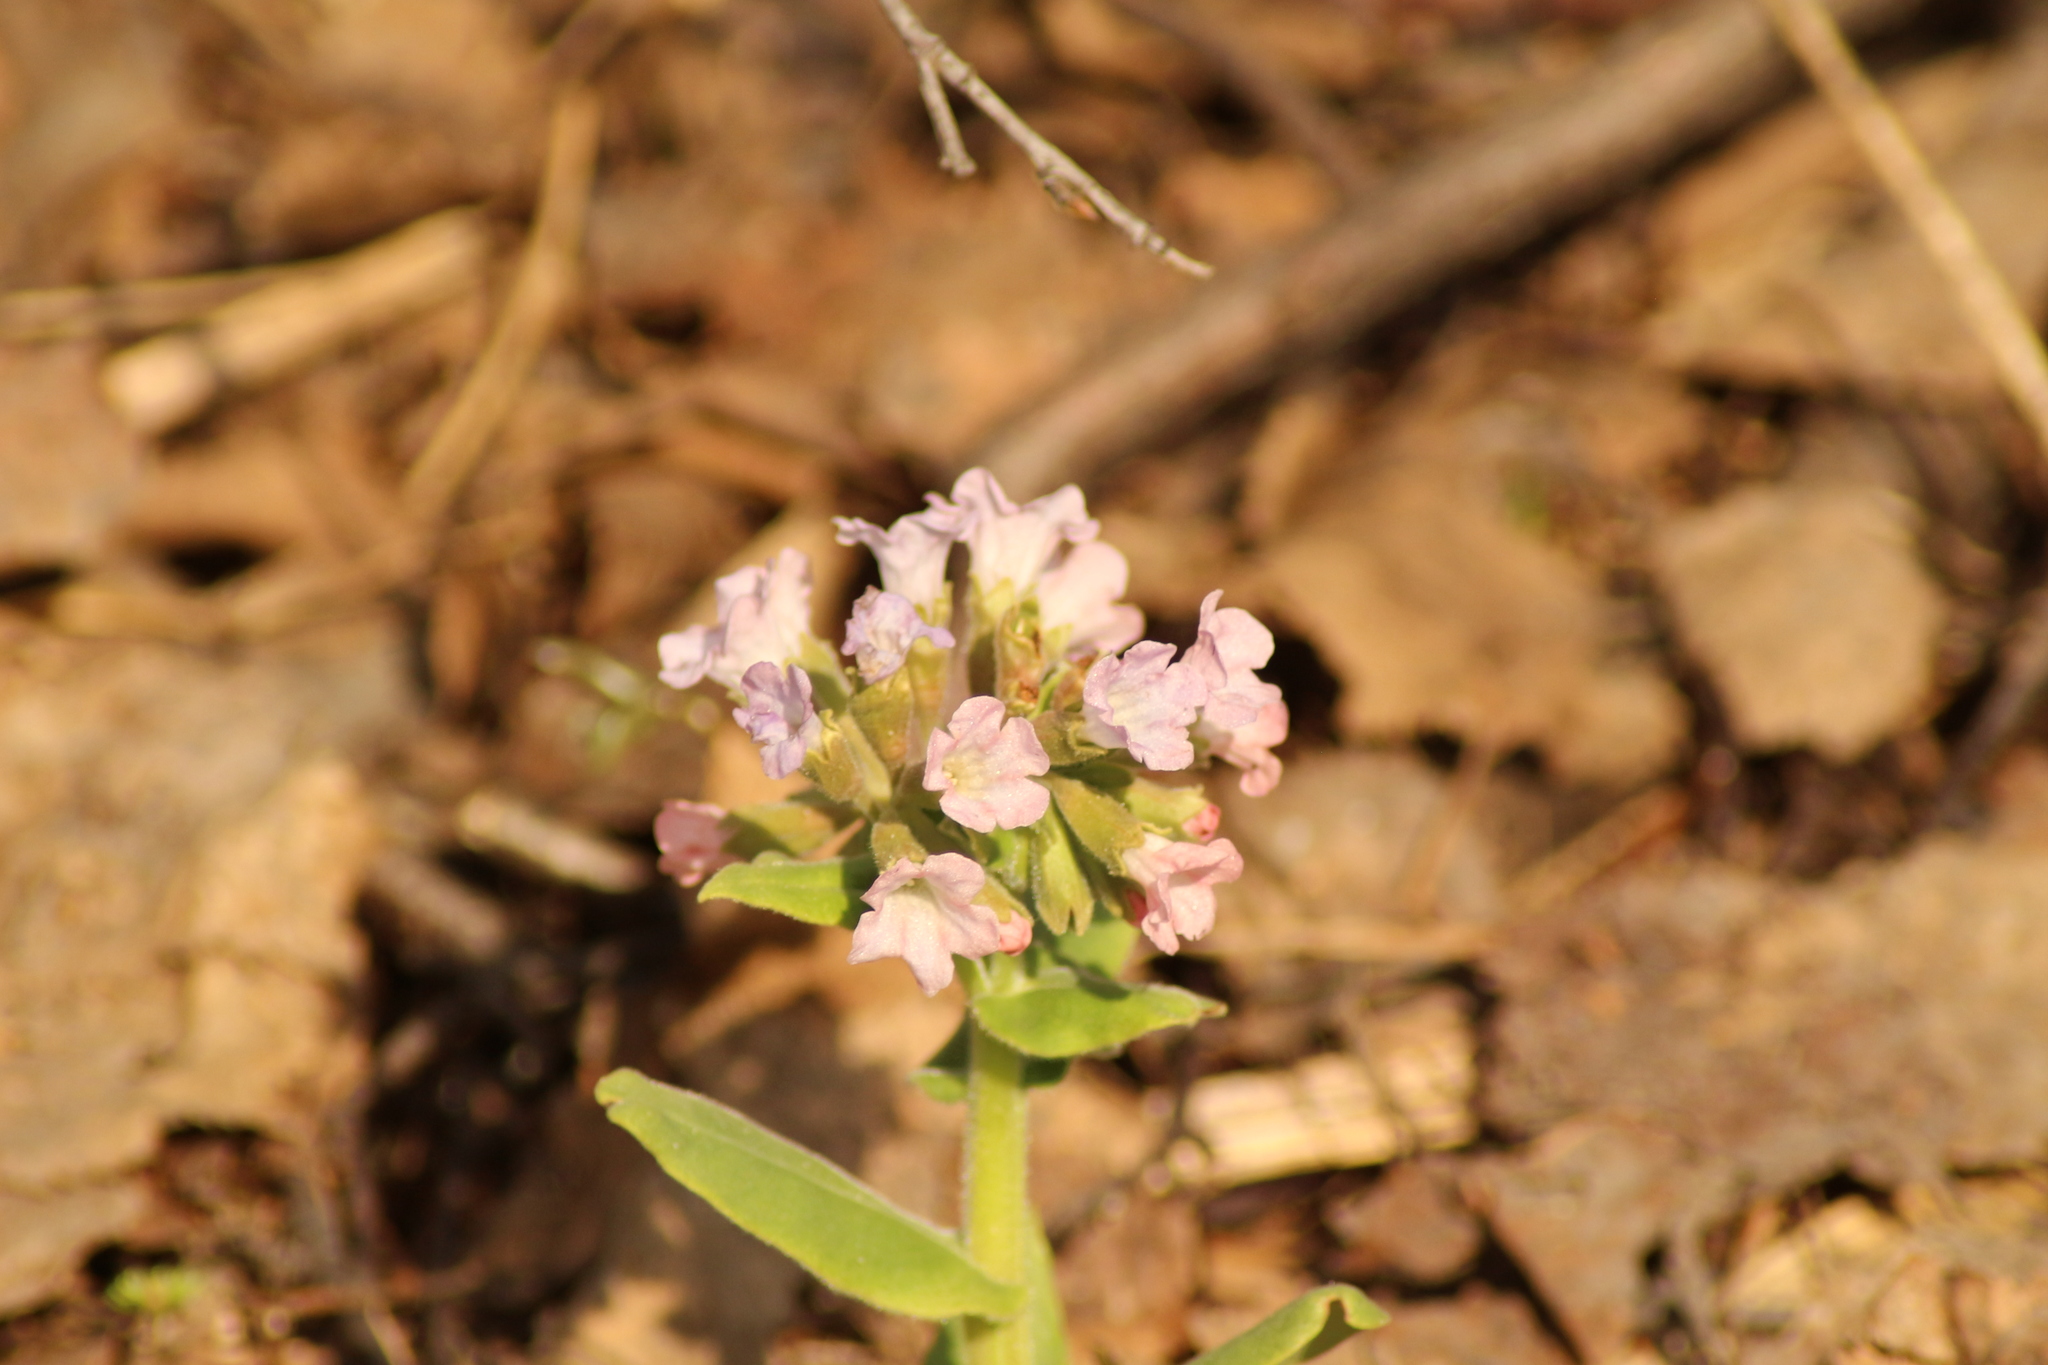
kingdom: Plantae
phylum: Tracheophyta
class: Magnoliopsida
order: Boraginales
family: Boraginaceae
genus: Pulmonaria
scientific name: Pulmonaria mollis
